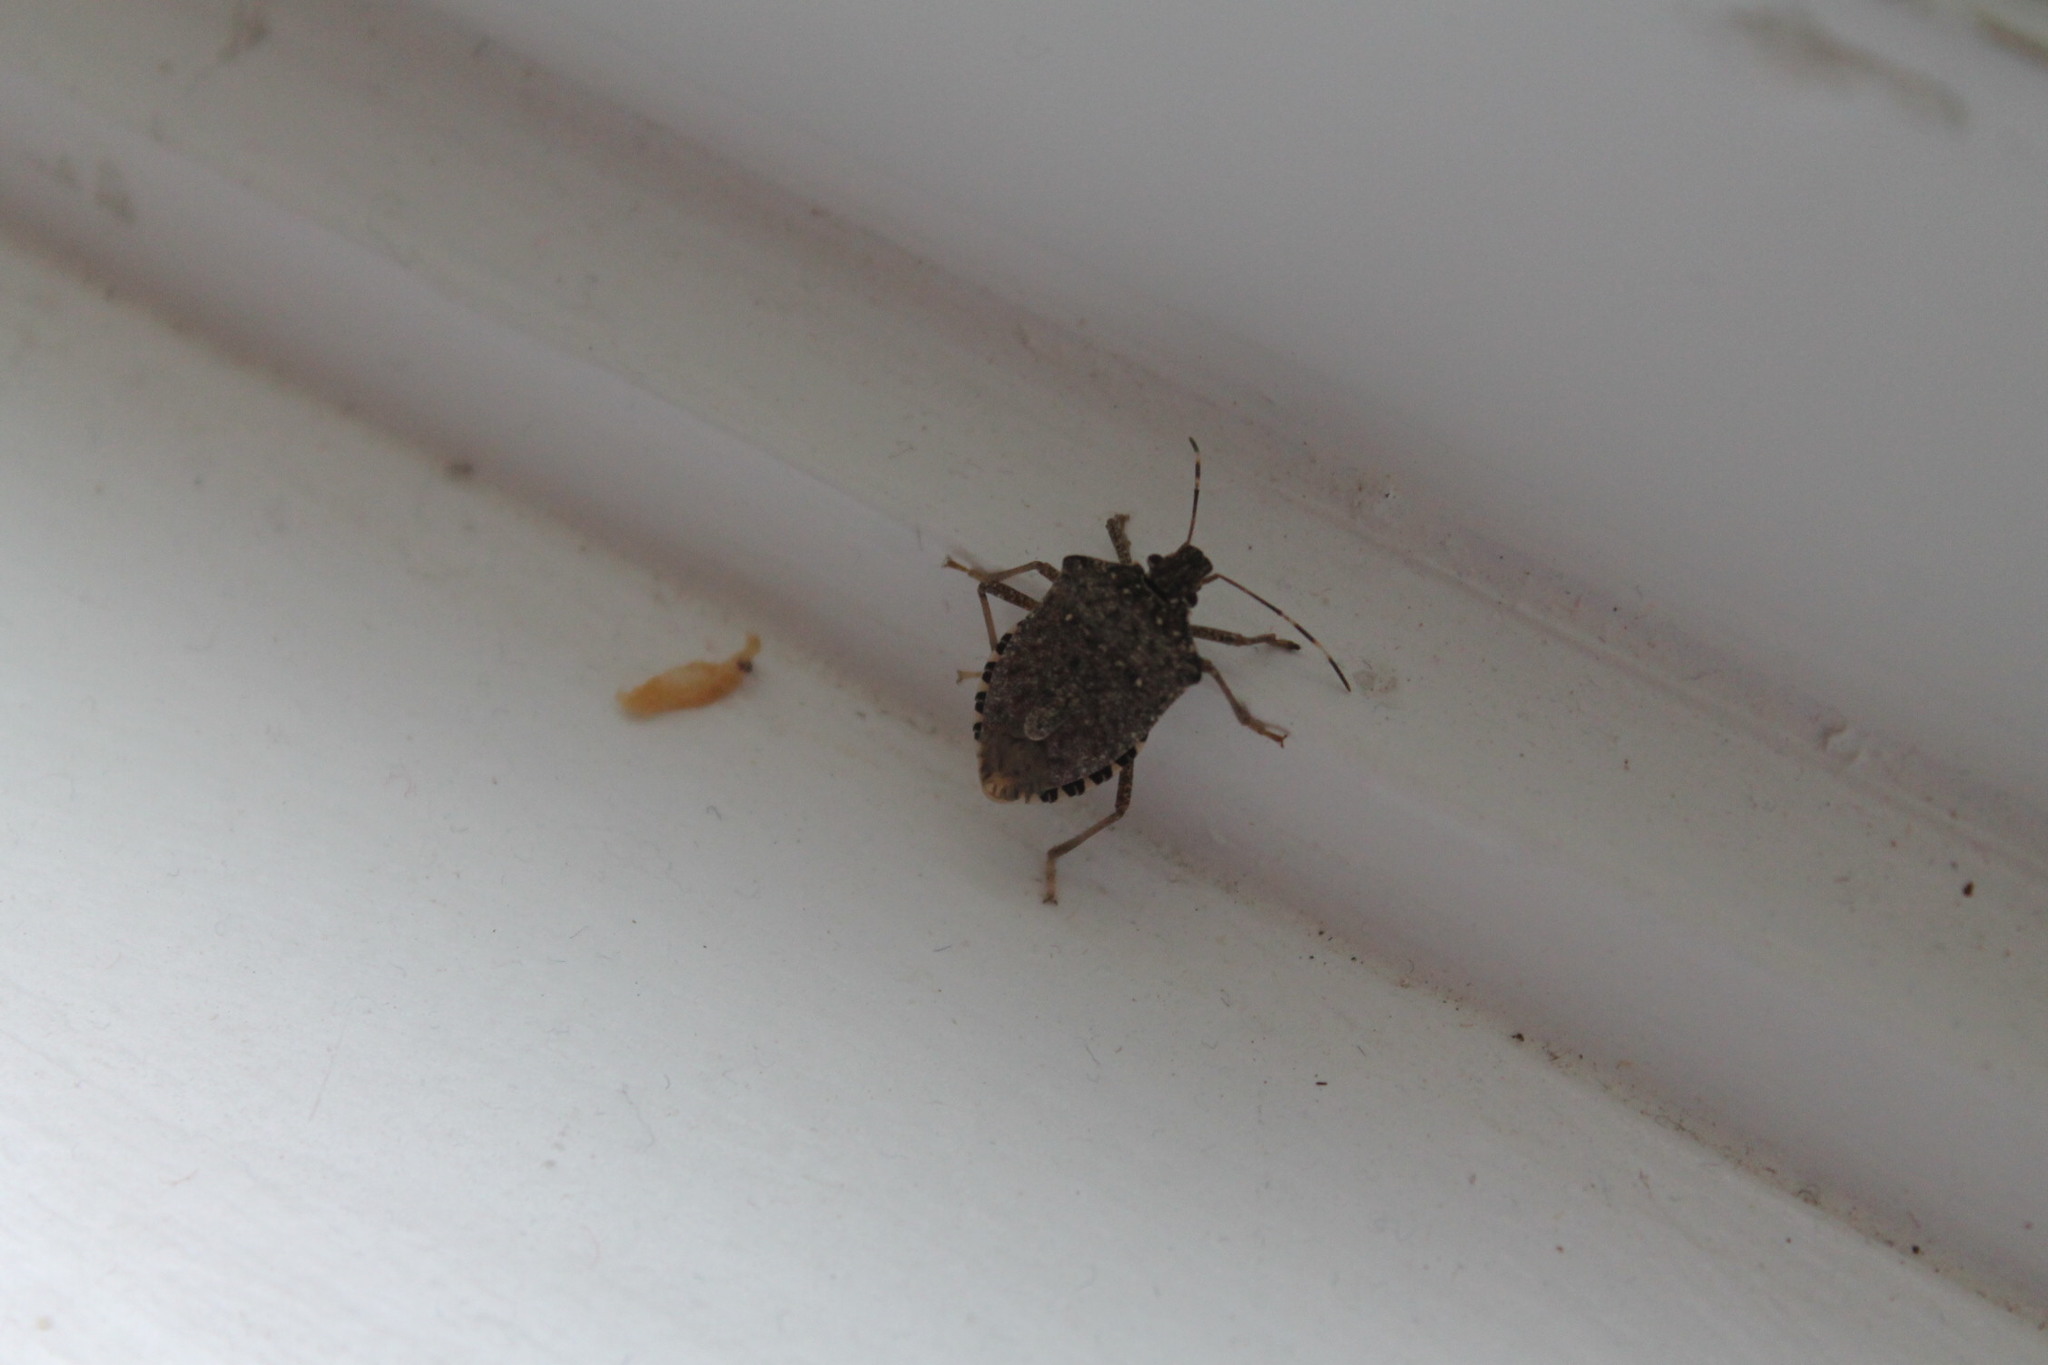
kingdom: Animalia
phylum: Arthropoda
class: Insecta
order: Hemiptera
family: Pentatomidae
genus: Halyomorpha
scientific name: Halyomorpha halys
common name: Brown marmorated stink bug
